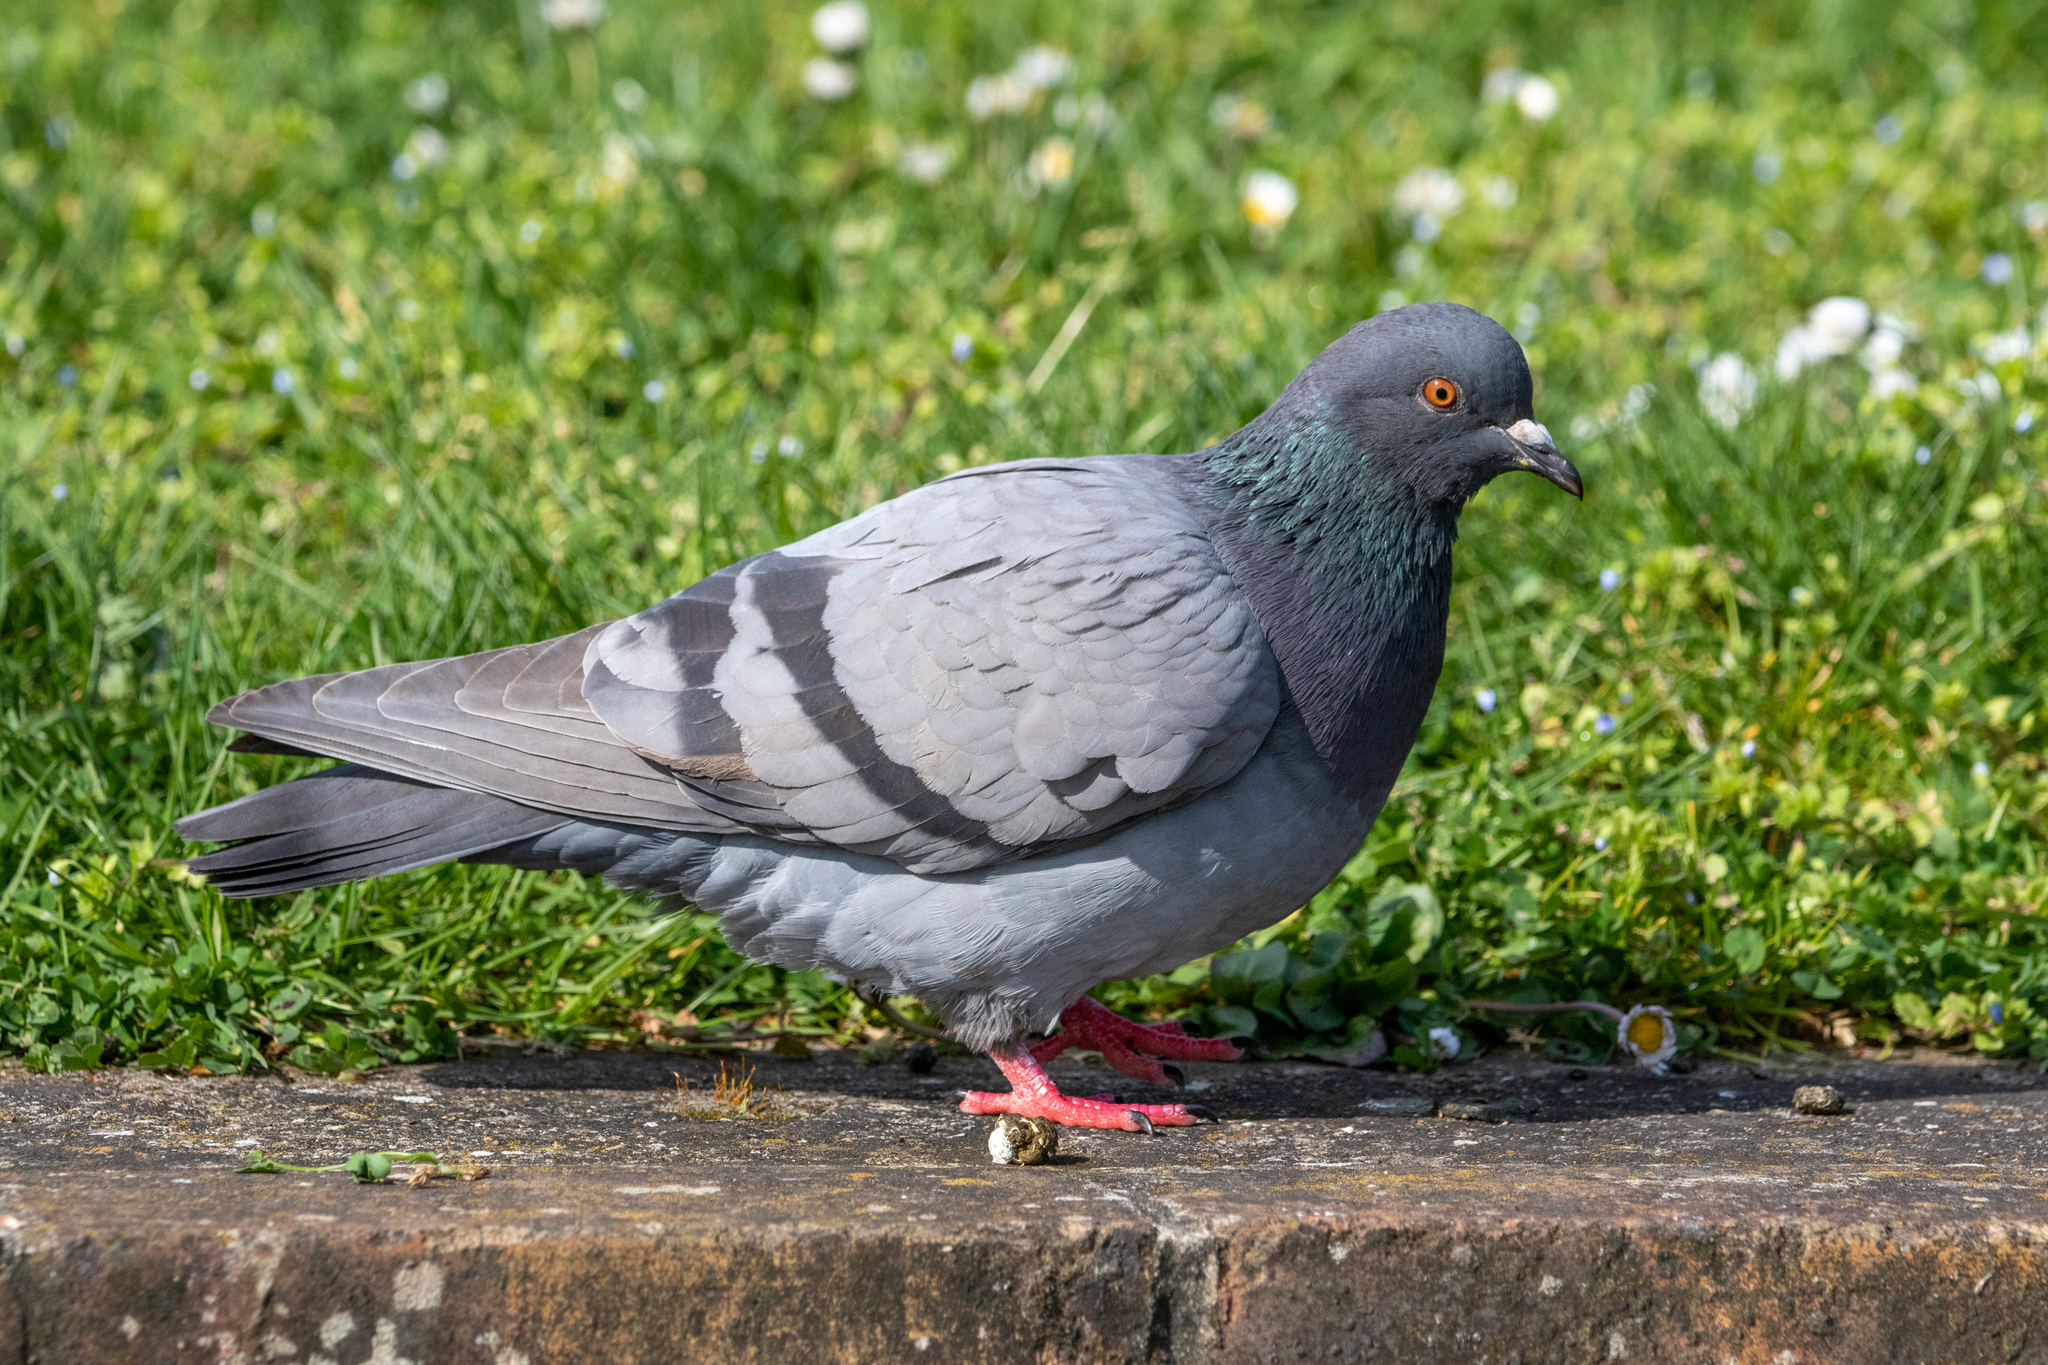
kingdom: Animalia
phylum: Chordata
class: Aves
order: Columbiformes
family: Columbidae
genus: Columba
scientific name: Columba livia
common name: Rock pigeon
